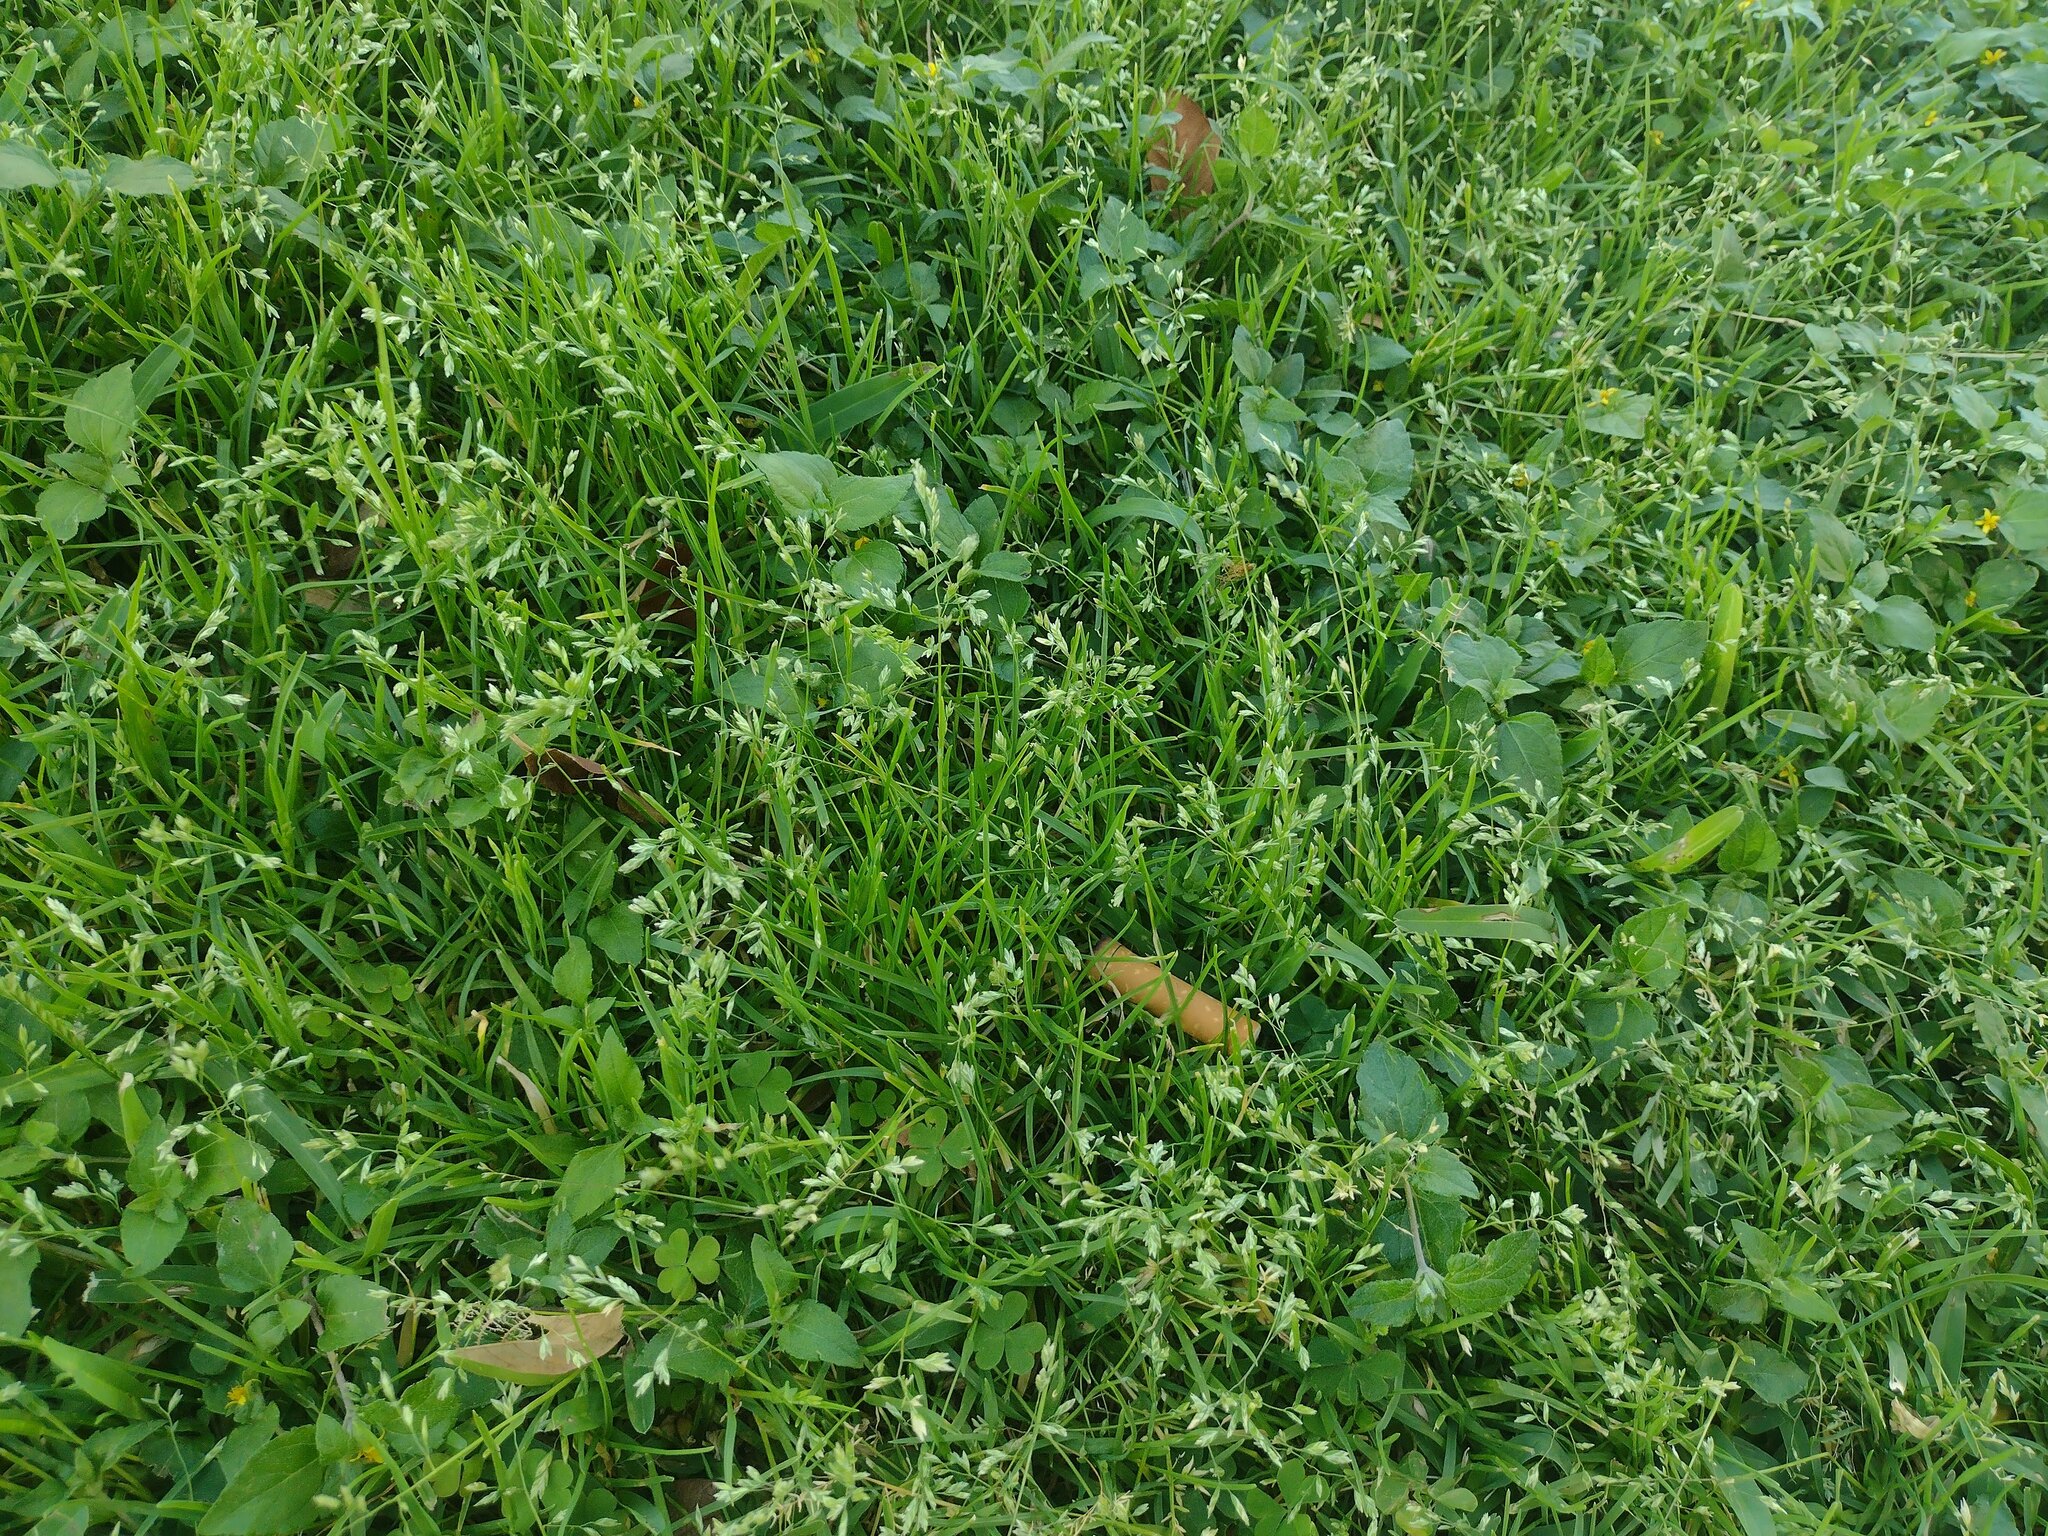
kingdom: Plantae
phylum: Tracheophyta
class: Liliopsida
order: Poales
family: Poaceae
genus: Poa
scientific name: Poa annua
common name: Annual bluegrass
